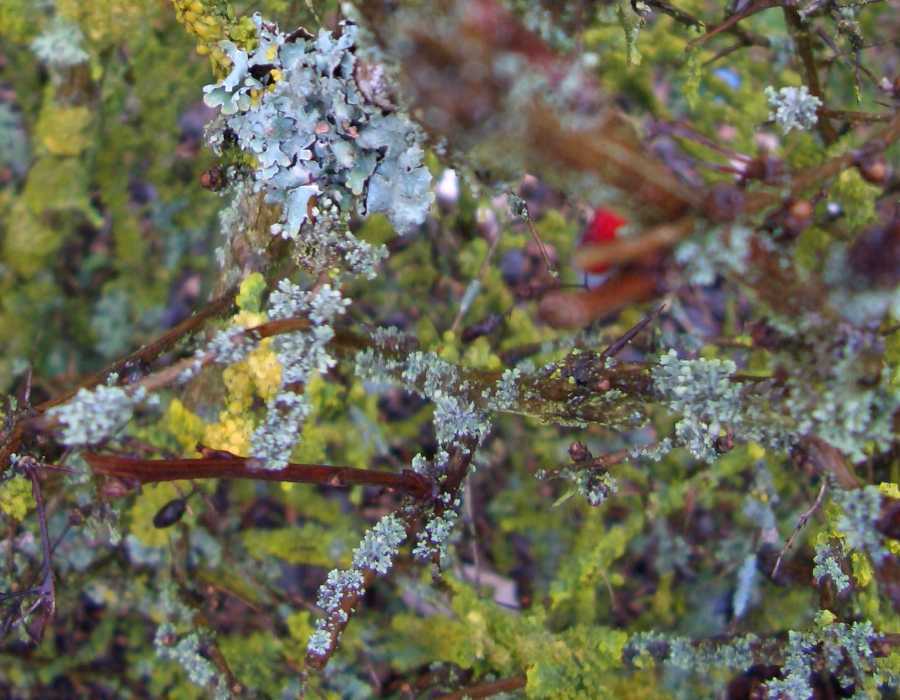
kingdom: Fungi
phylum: Ascomycota
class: Lecanoromycetes
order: Lecanorales
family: Parmeliaceae
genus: Parmelia
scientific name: Parmelia sulcata
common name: Netted shield lichen
